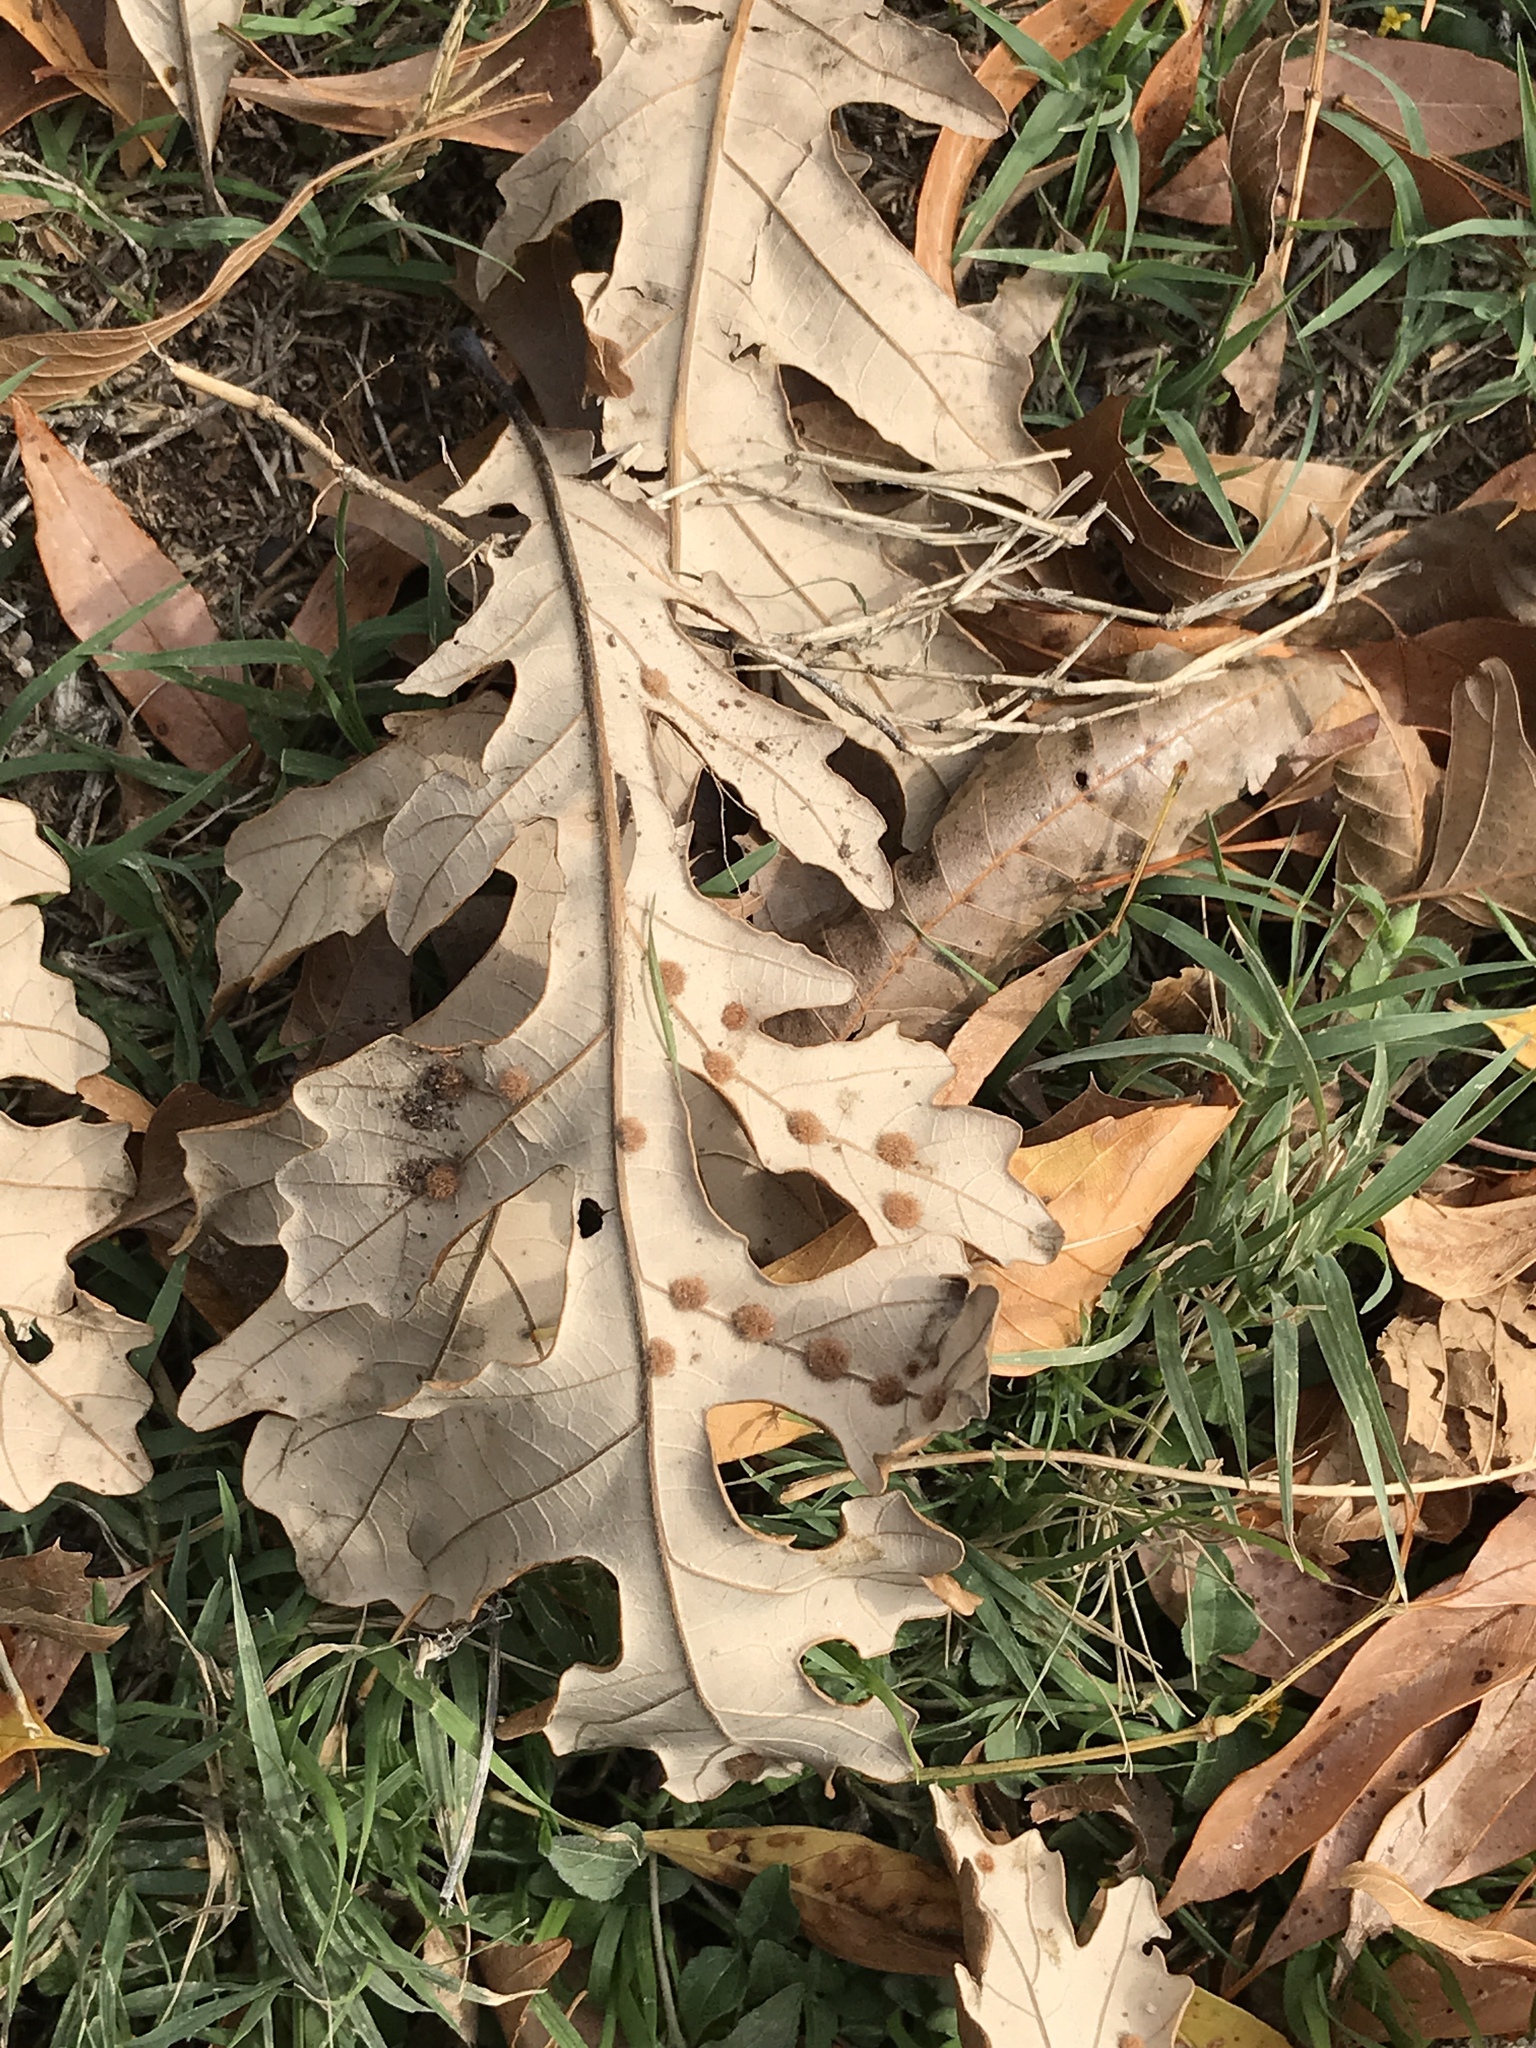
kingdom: Animalia
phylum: Arthropoda
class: Insecta
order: Hymenoptera
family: Cynipidae
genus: Neuroterus
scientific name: Neuroterus quercusverrucarum
